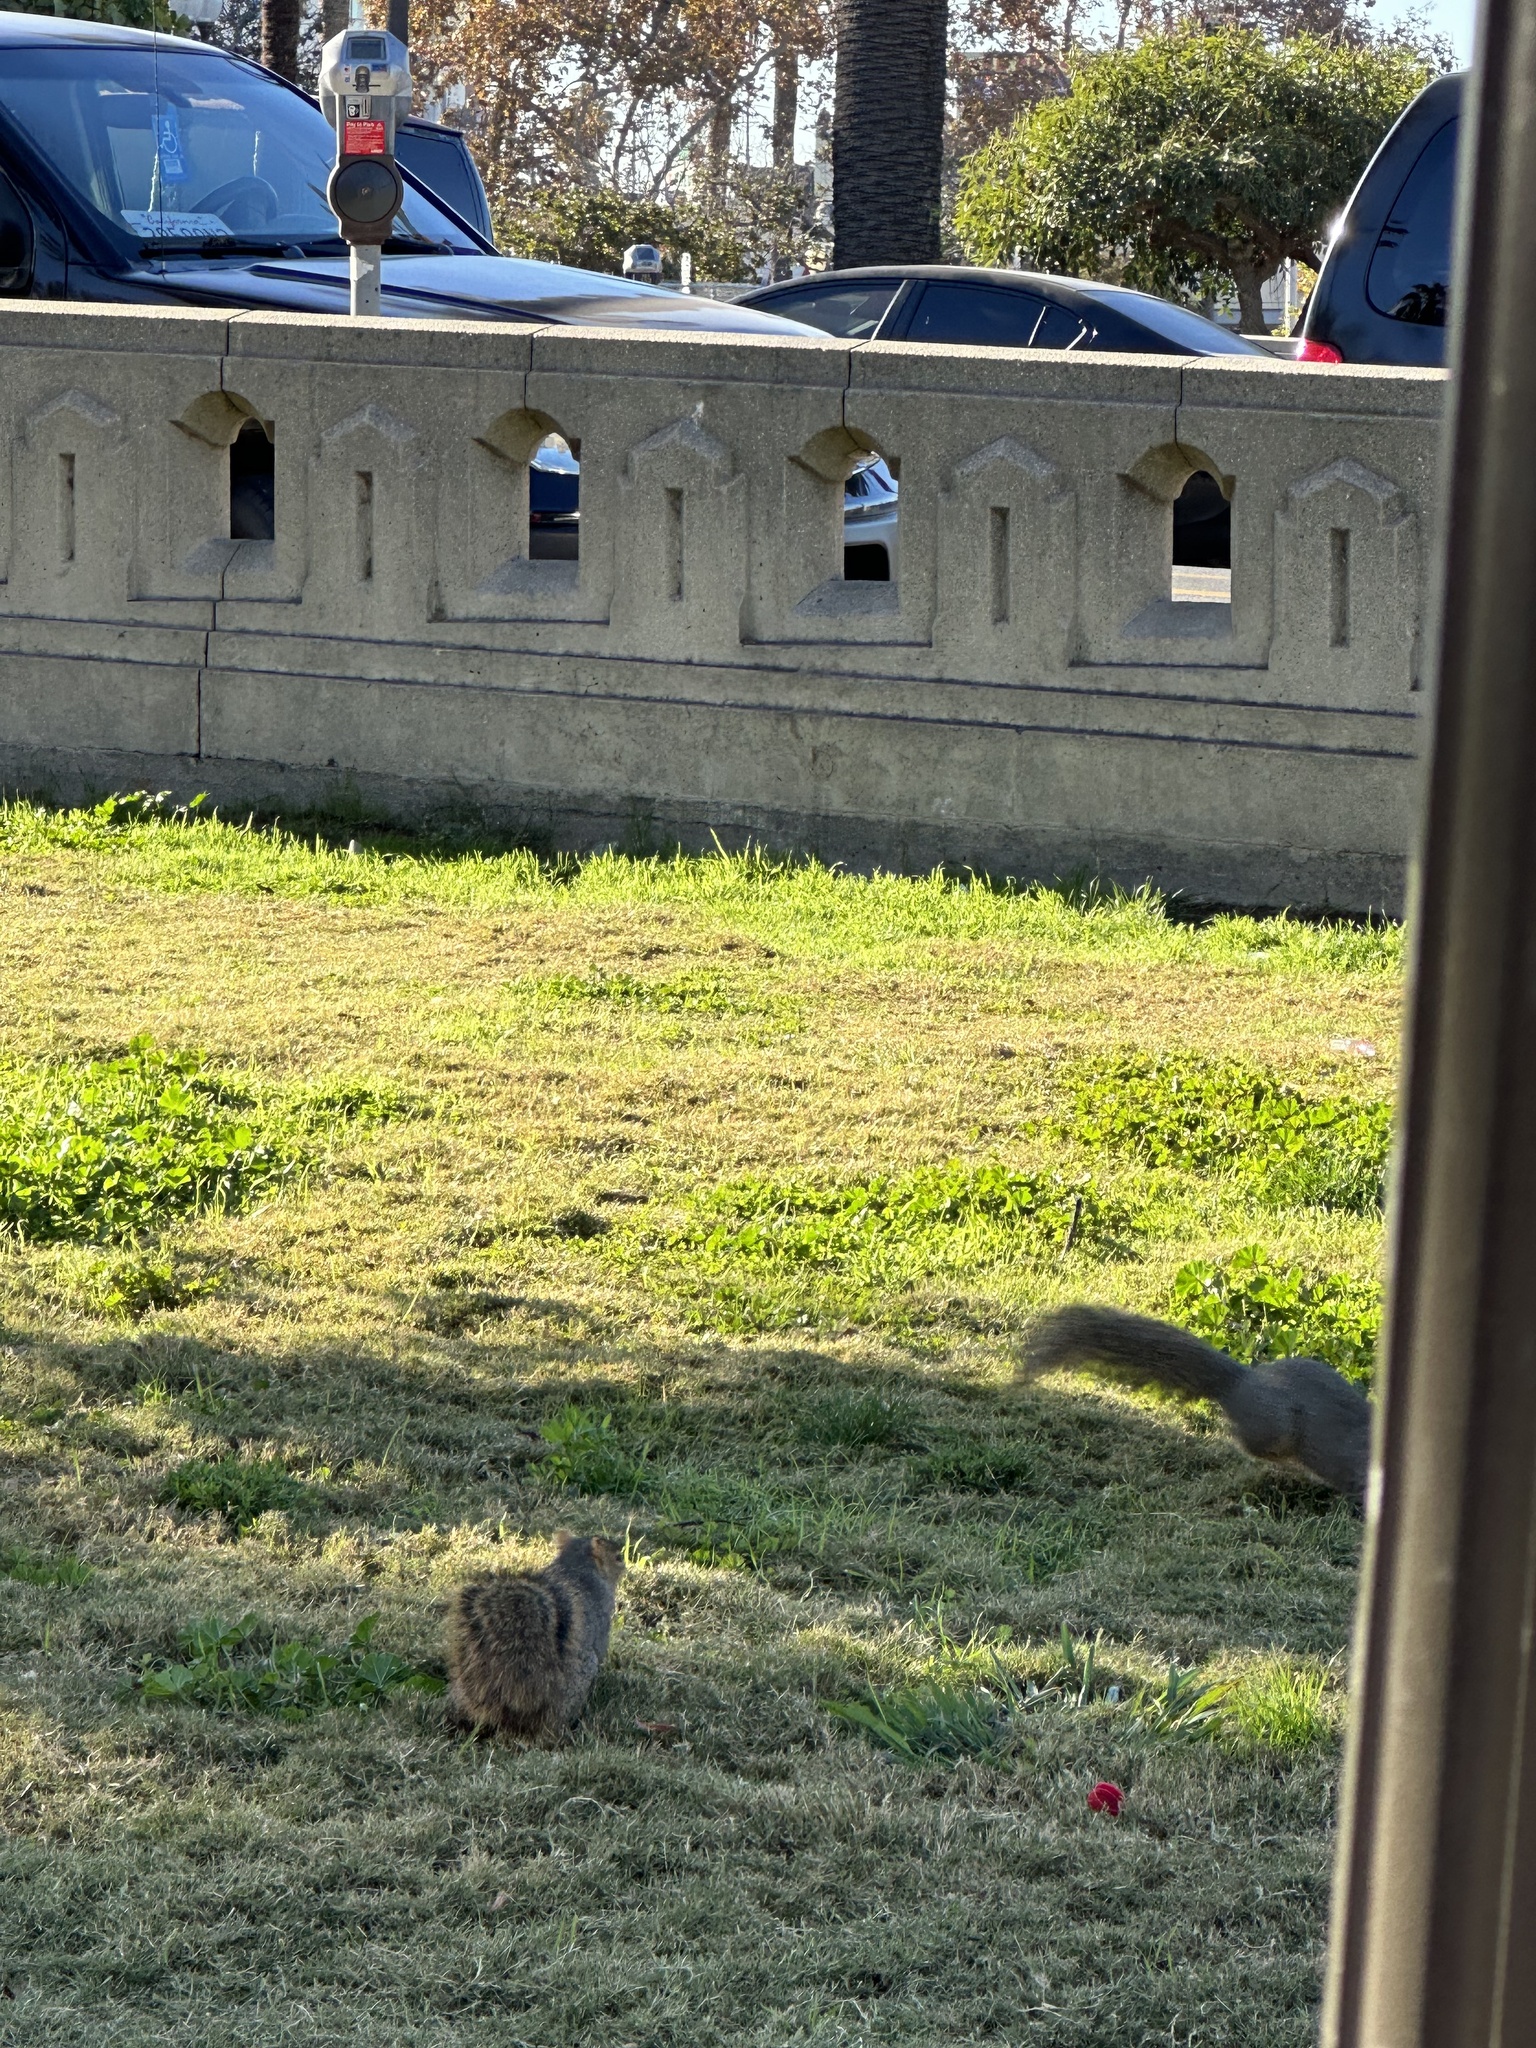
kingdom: Animalia
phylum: Chordata
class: Mammalia
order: Rodentia
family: Sciuridae
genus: Sciurus
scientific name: Sciurus niger
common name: Fox squirrel
